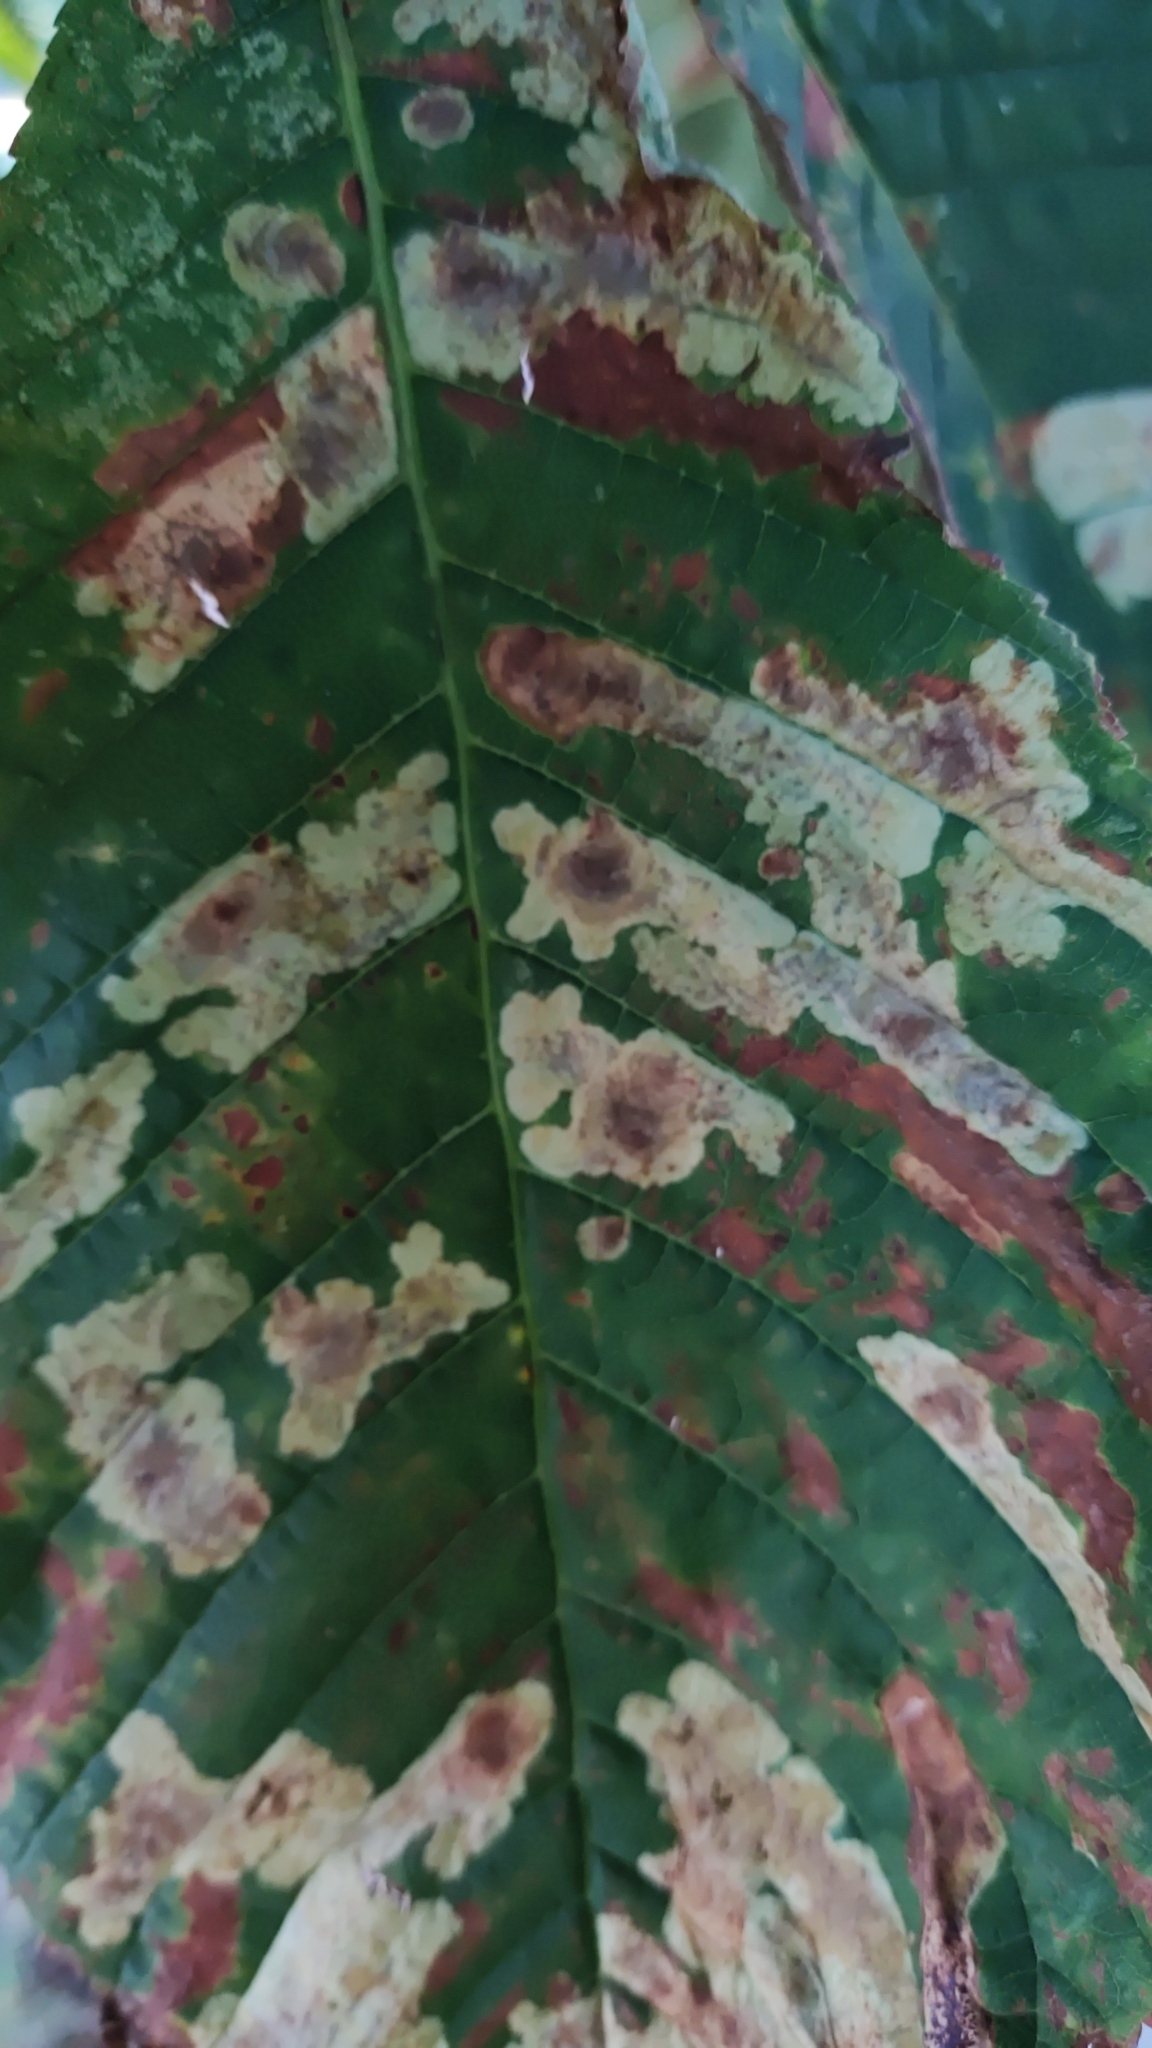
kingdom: Animalia
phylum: Arthropoda
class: Insecta
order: Lepidoptera
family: Gracillariidae
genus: Cameraria
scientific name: Cameraria ohridella
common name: Horse-chestnut leaf-miner
